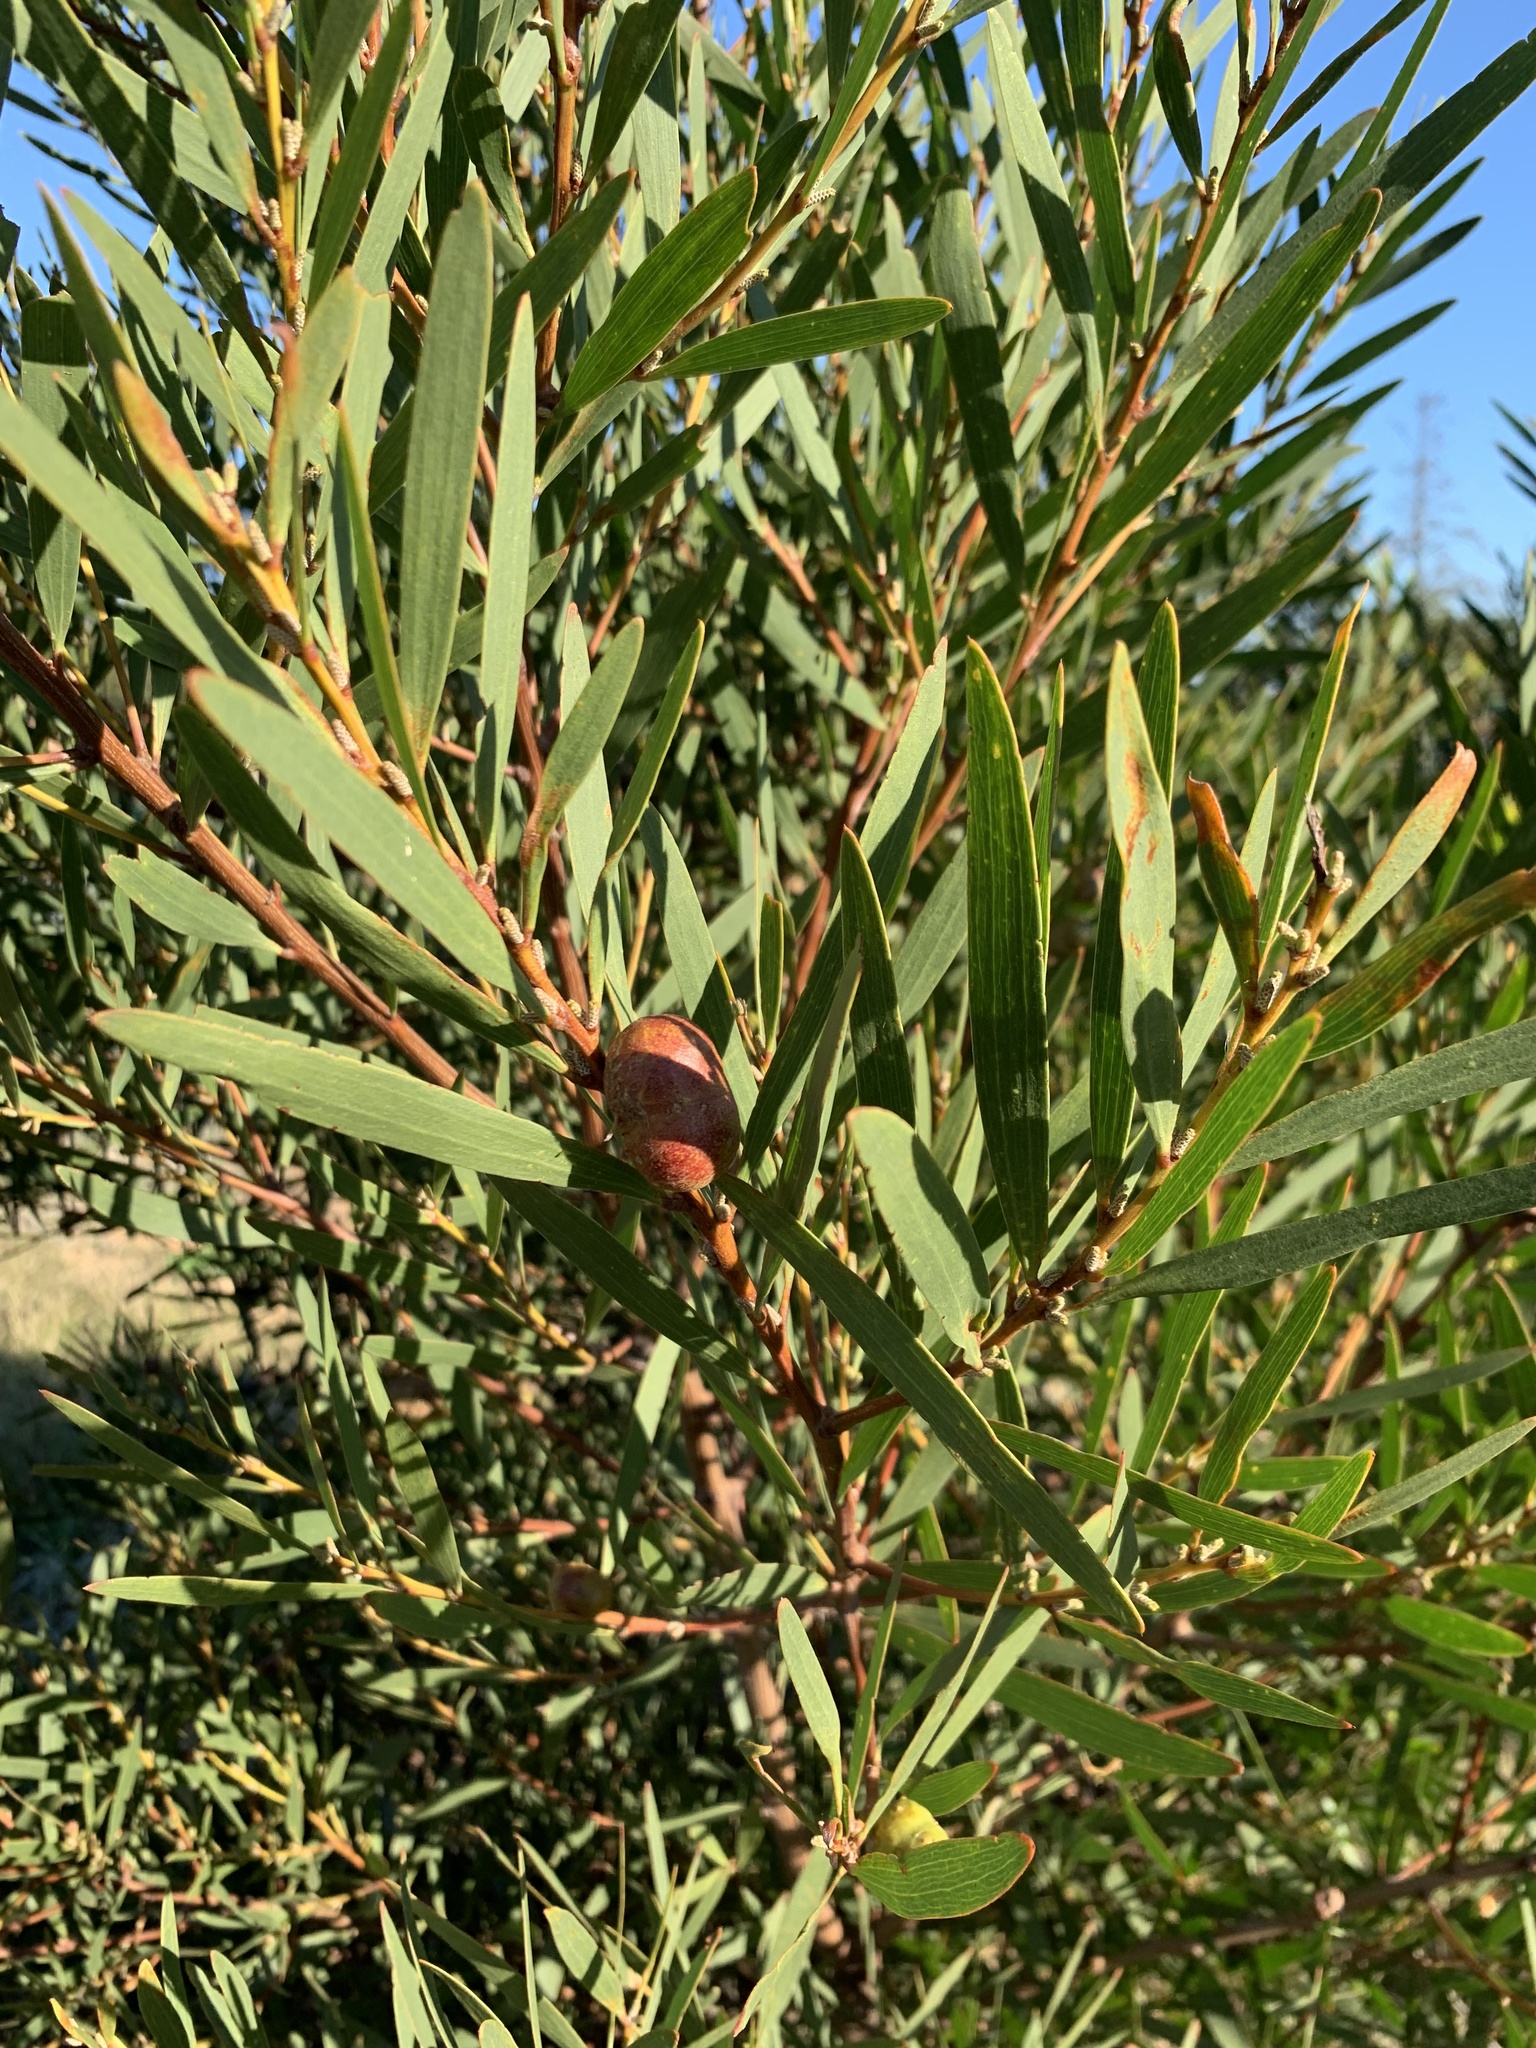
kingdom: Plantae
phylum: Tracheophyta
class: Magnoliopsida
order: Fabales
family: Fabaceae
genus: Acacia
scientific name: Acacia longifolia
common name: Sydney golden wattle
